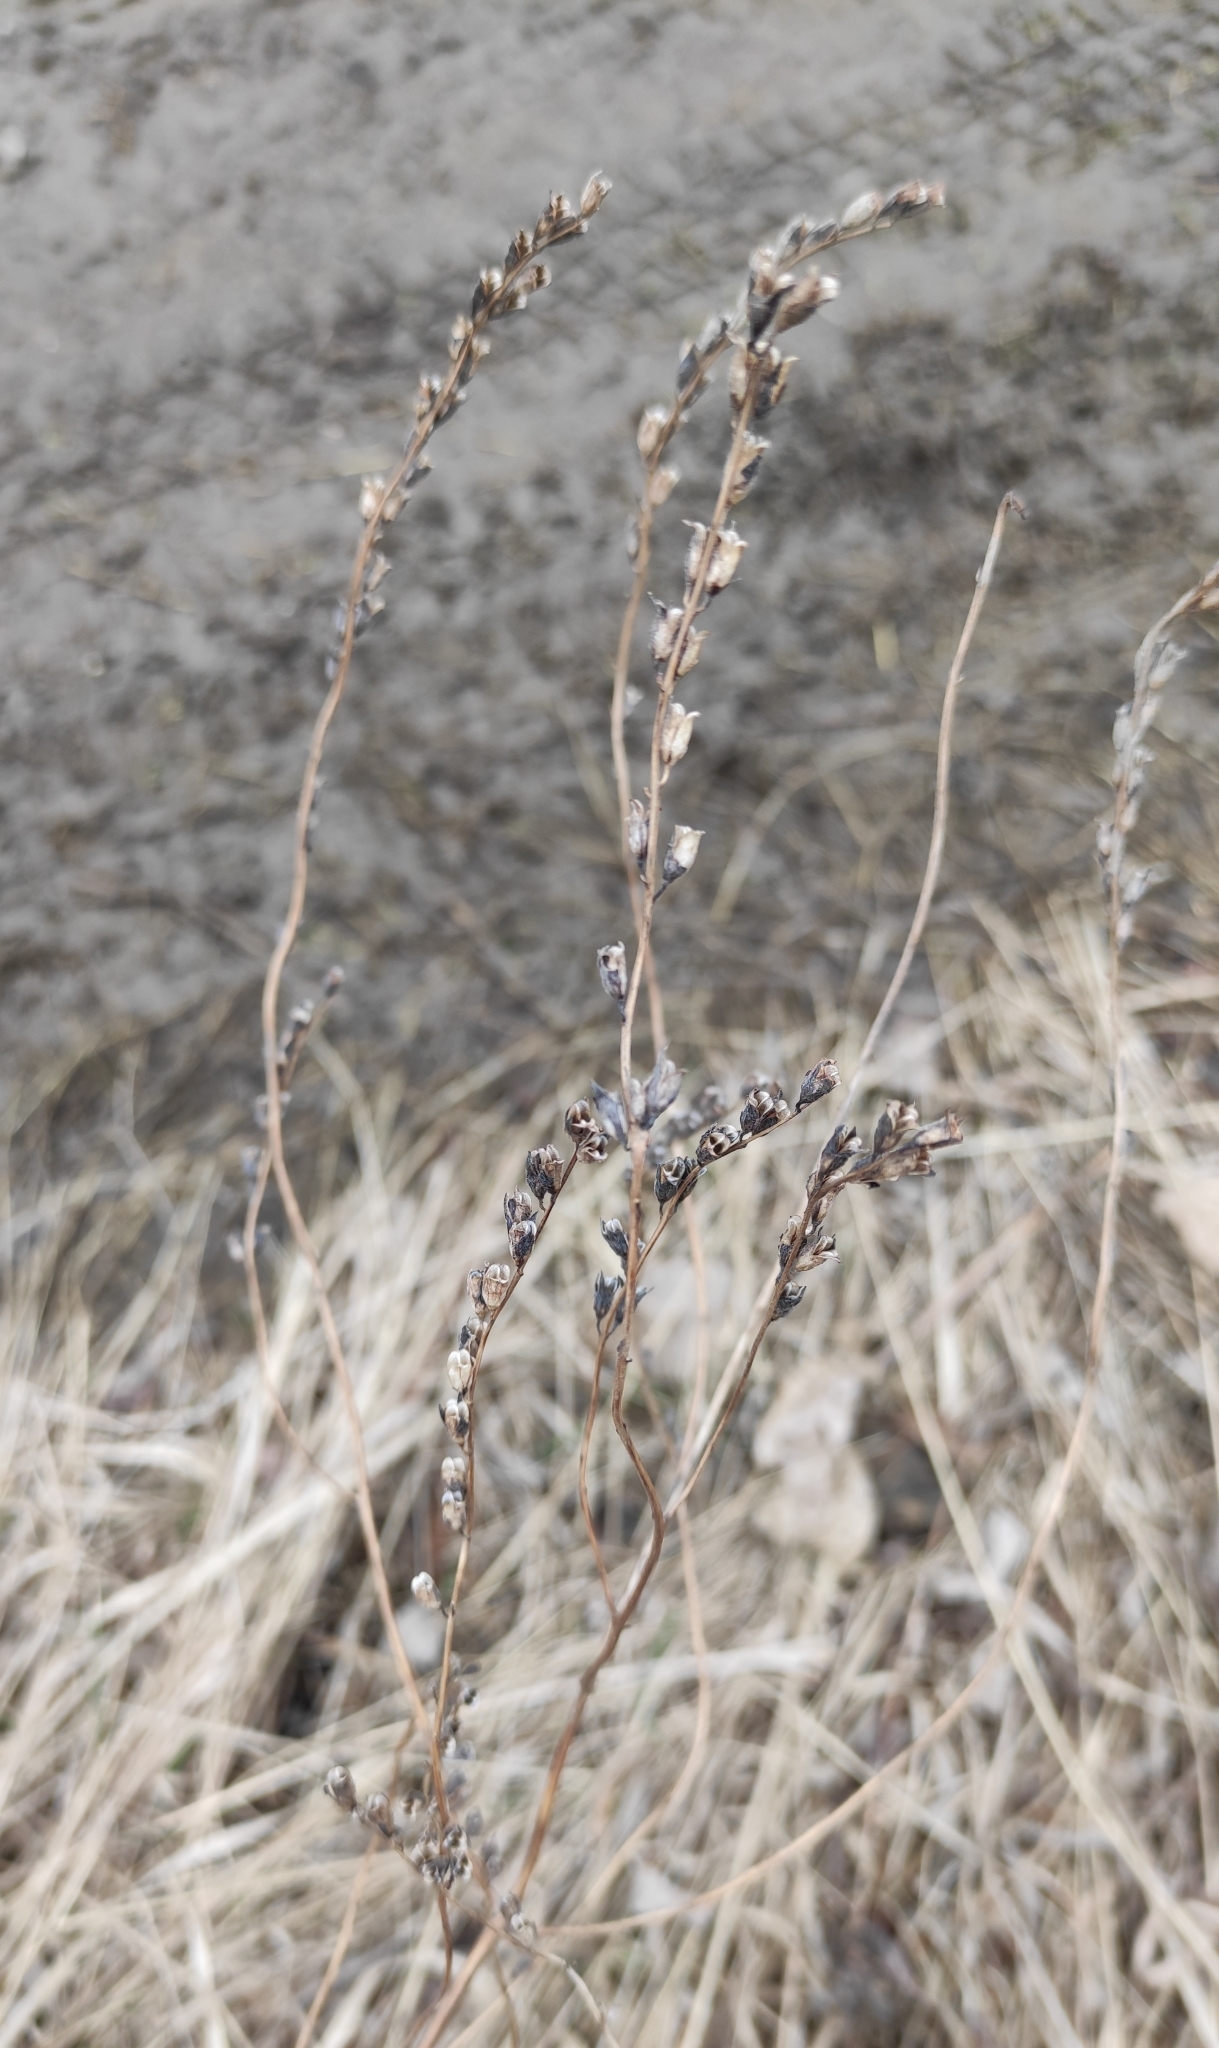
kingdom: Plantae
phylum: Tracheophyta
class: Magnoliopsida
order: Lamiales
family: Orobanchaceae
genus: Odontites
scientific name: Odontites vulgaris
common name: Broomrape
